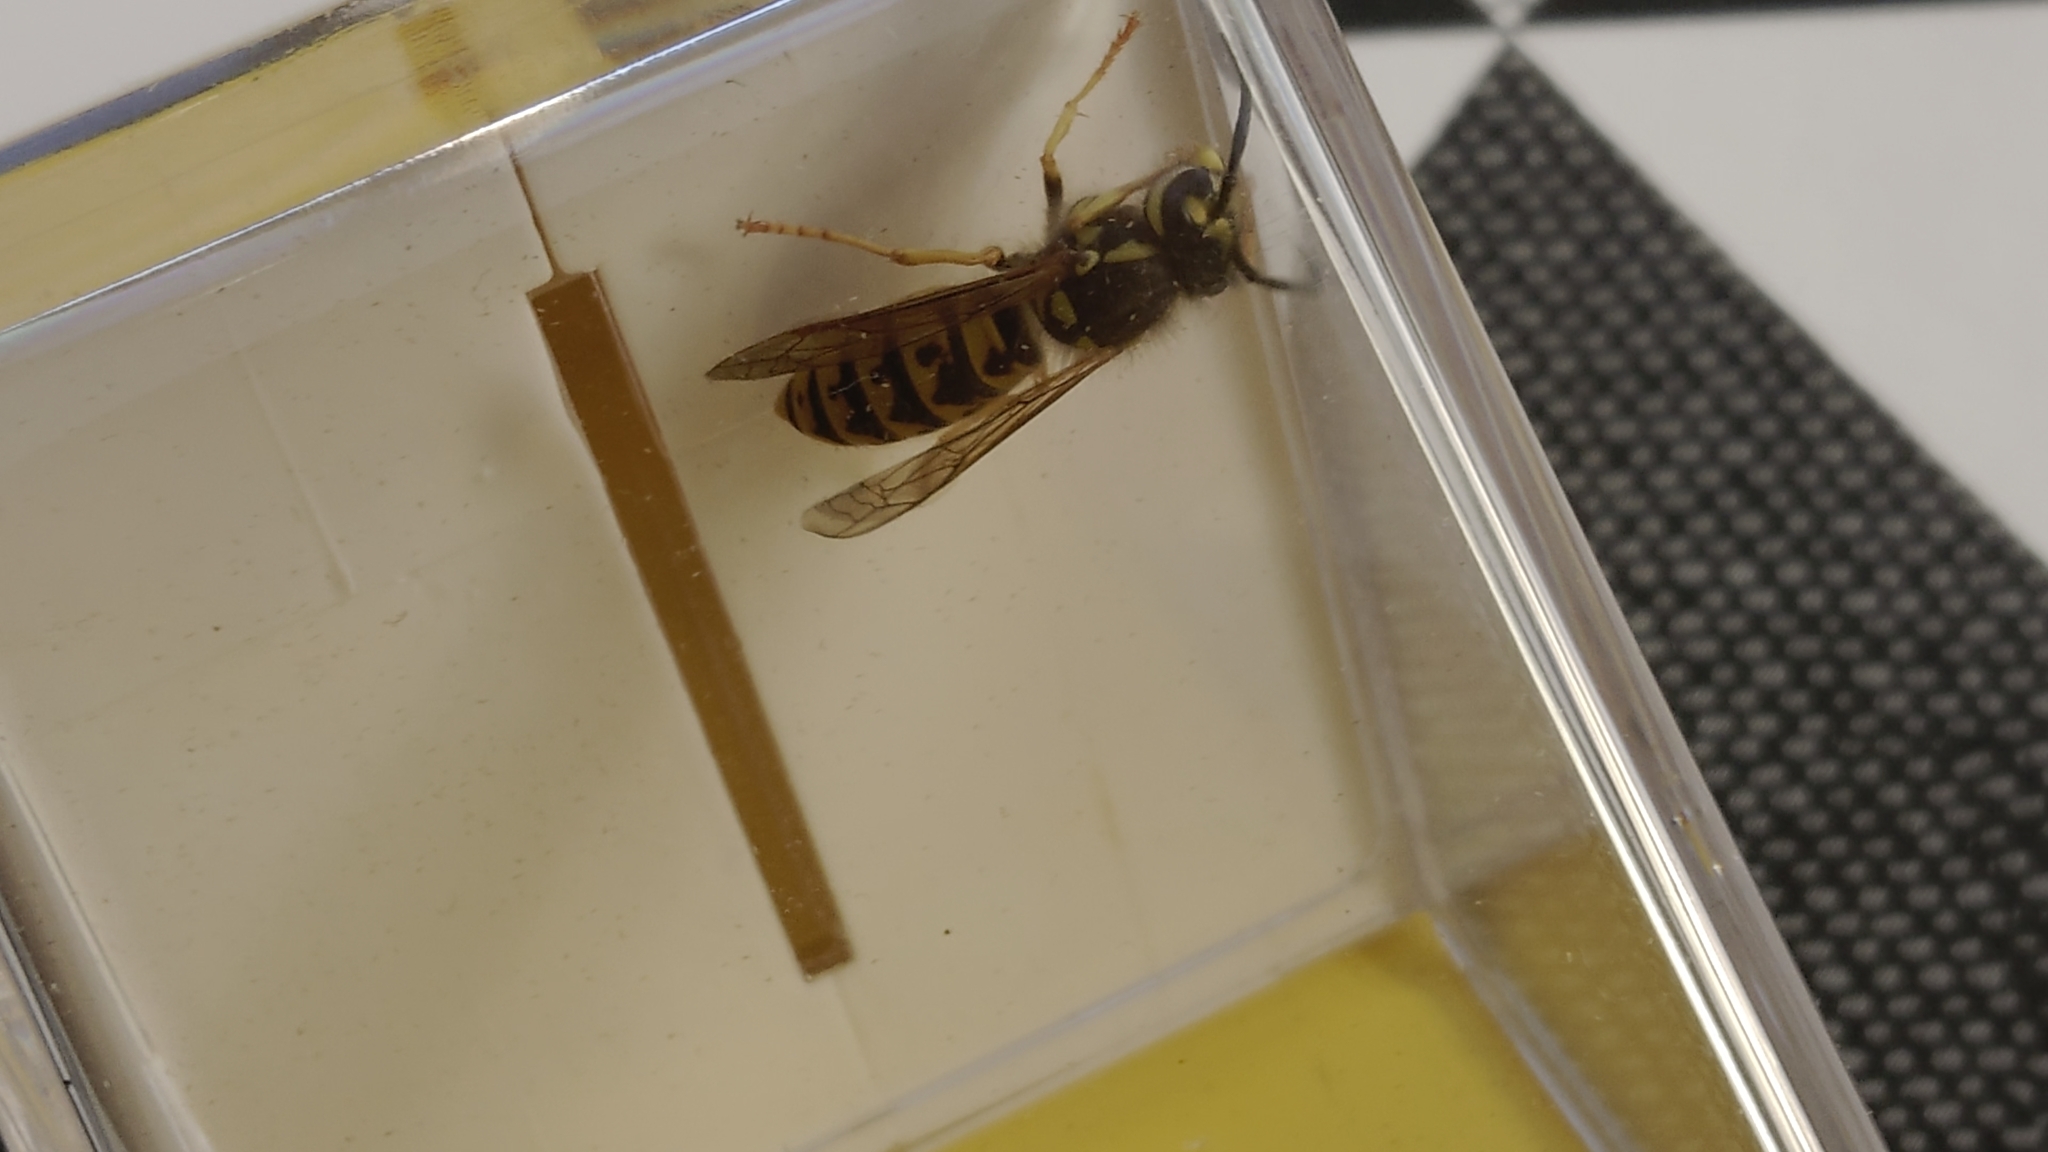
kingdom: Animalia
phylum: Arthropoda
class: Insecta
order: Hymenoptera
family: Vespidae
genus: Vespula
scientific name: Vespula vulgaris
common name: Common wasp
